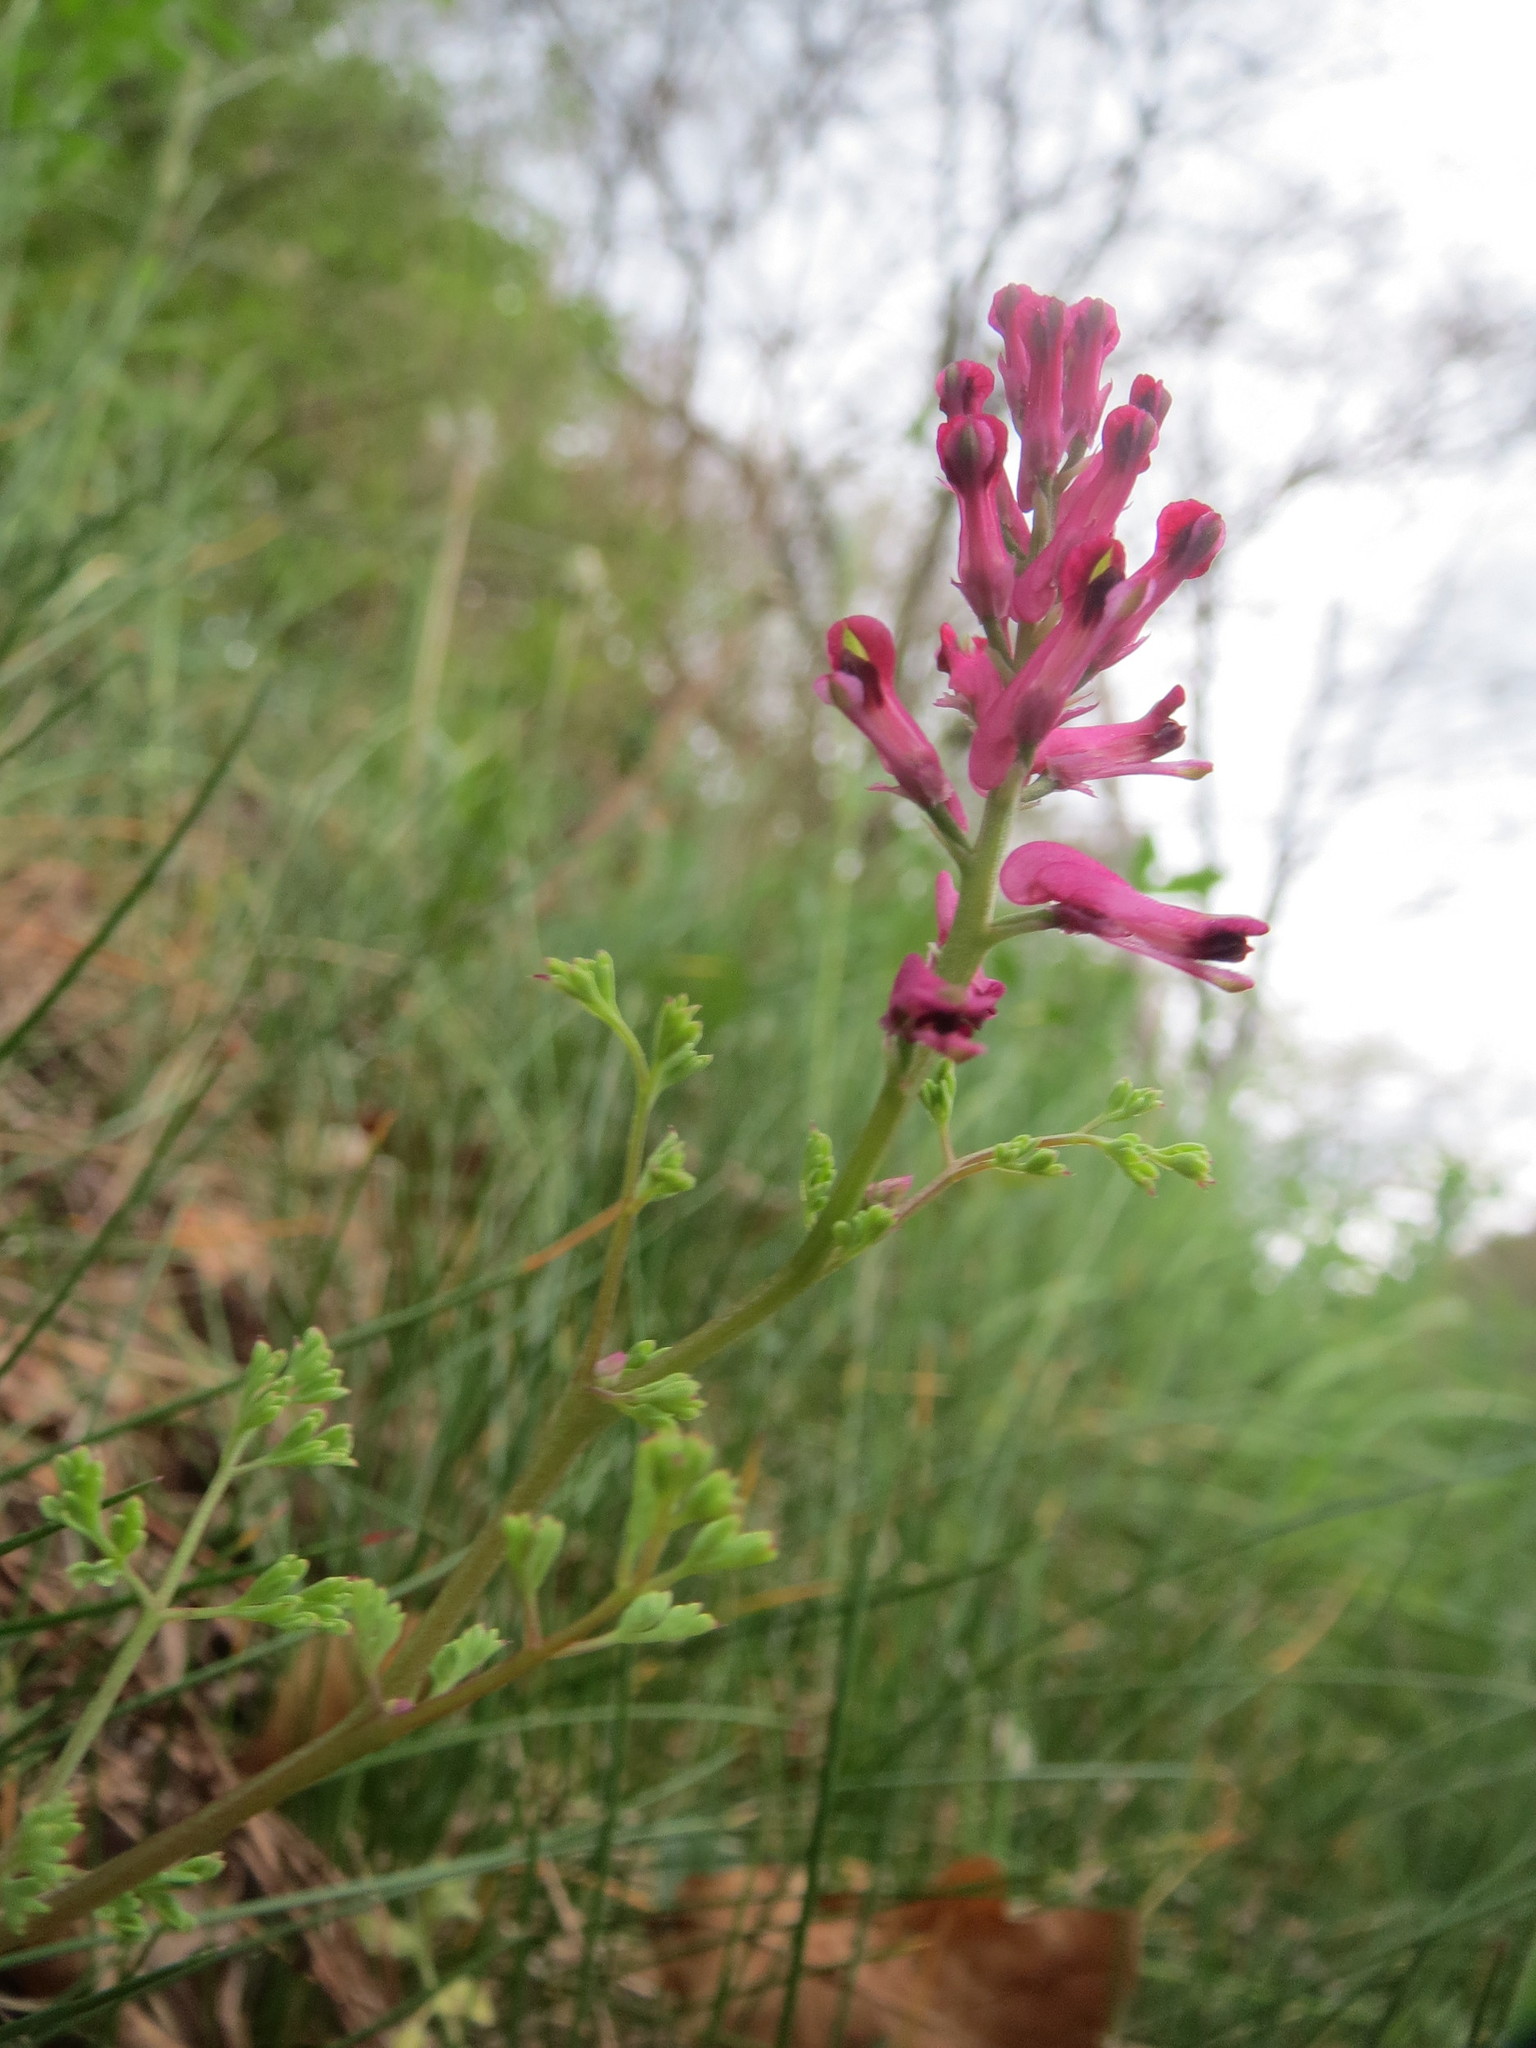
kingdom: Plantae
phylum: Tracheophyta
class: Magnoliopsida
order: Ranunculales
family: Papaveraceae
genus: Fumaria
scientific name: Fumaria officinalis
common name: Common fumitory
